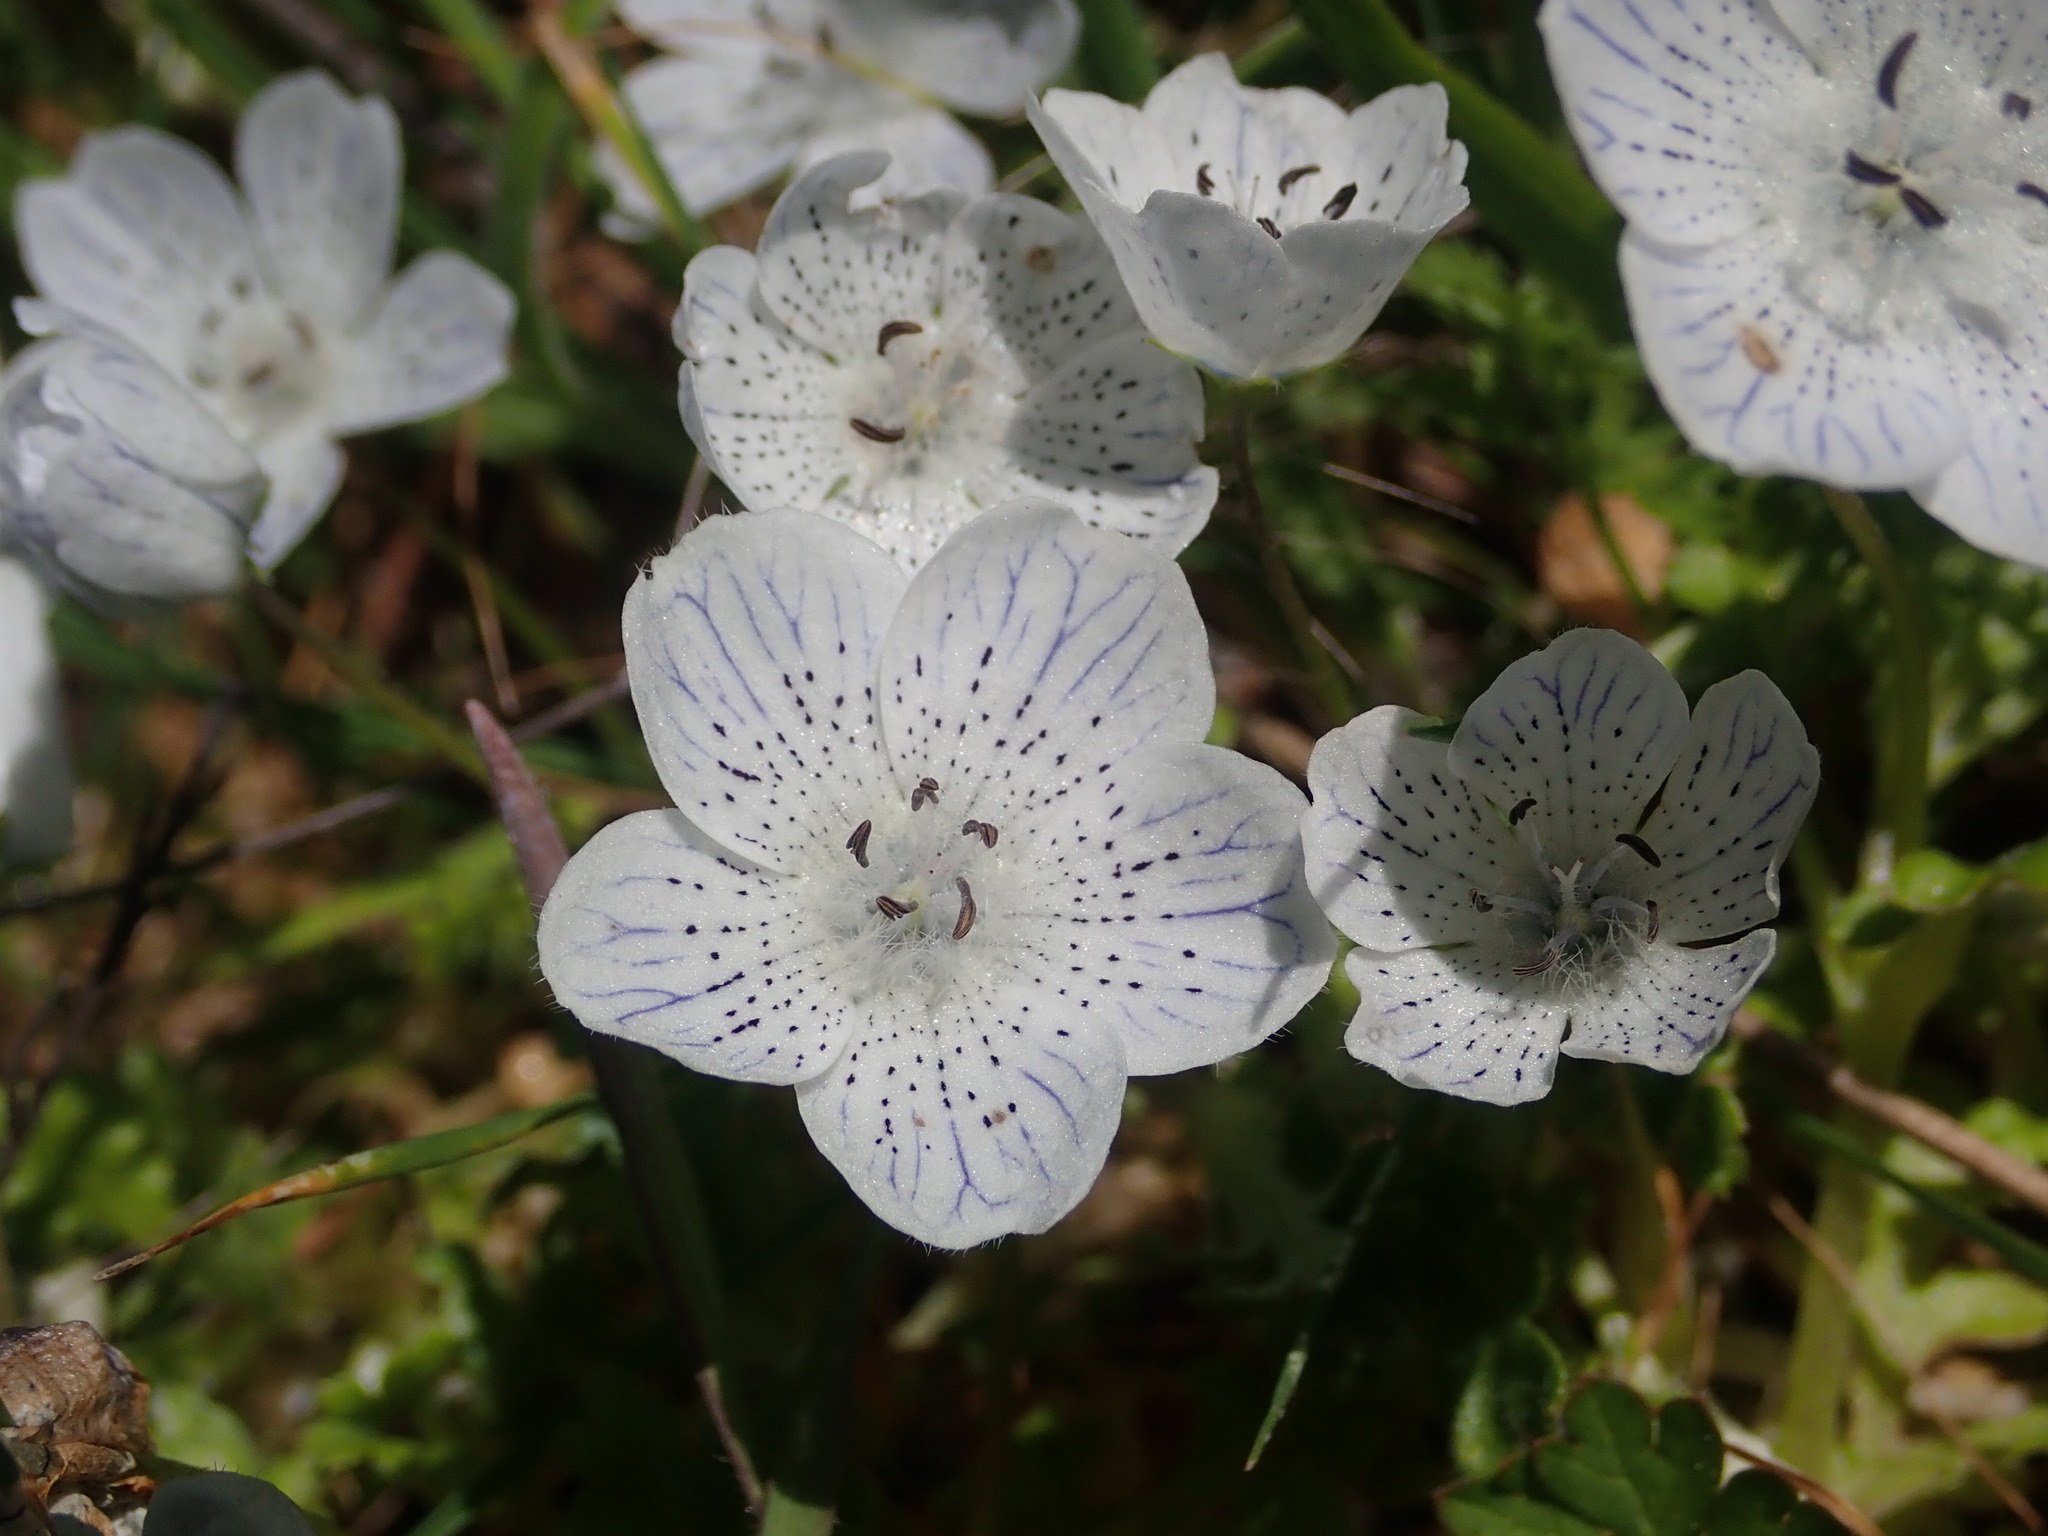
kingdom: Plantae
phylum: Tracheophyta
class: Magnoliopsida
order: Boraginales
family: Hydrophyllaceae
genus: Nemophila
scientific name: Nemophila menziesii
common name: Baby's-blue-eyes
